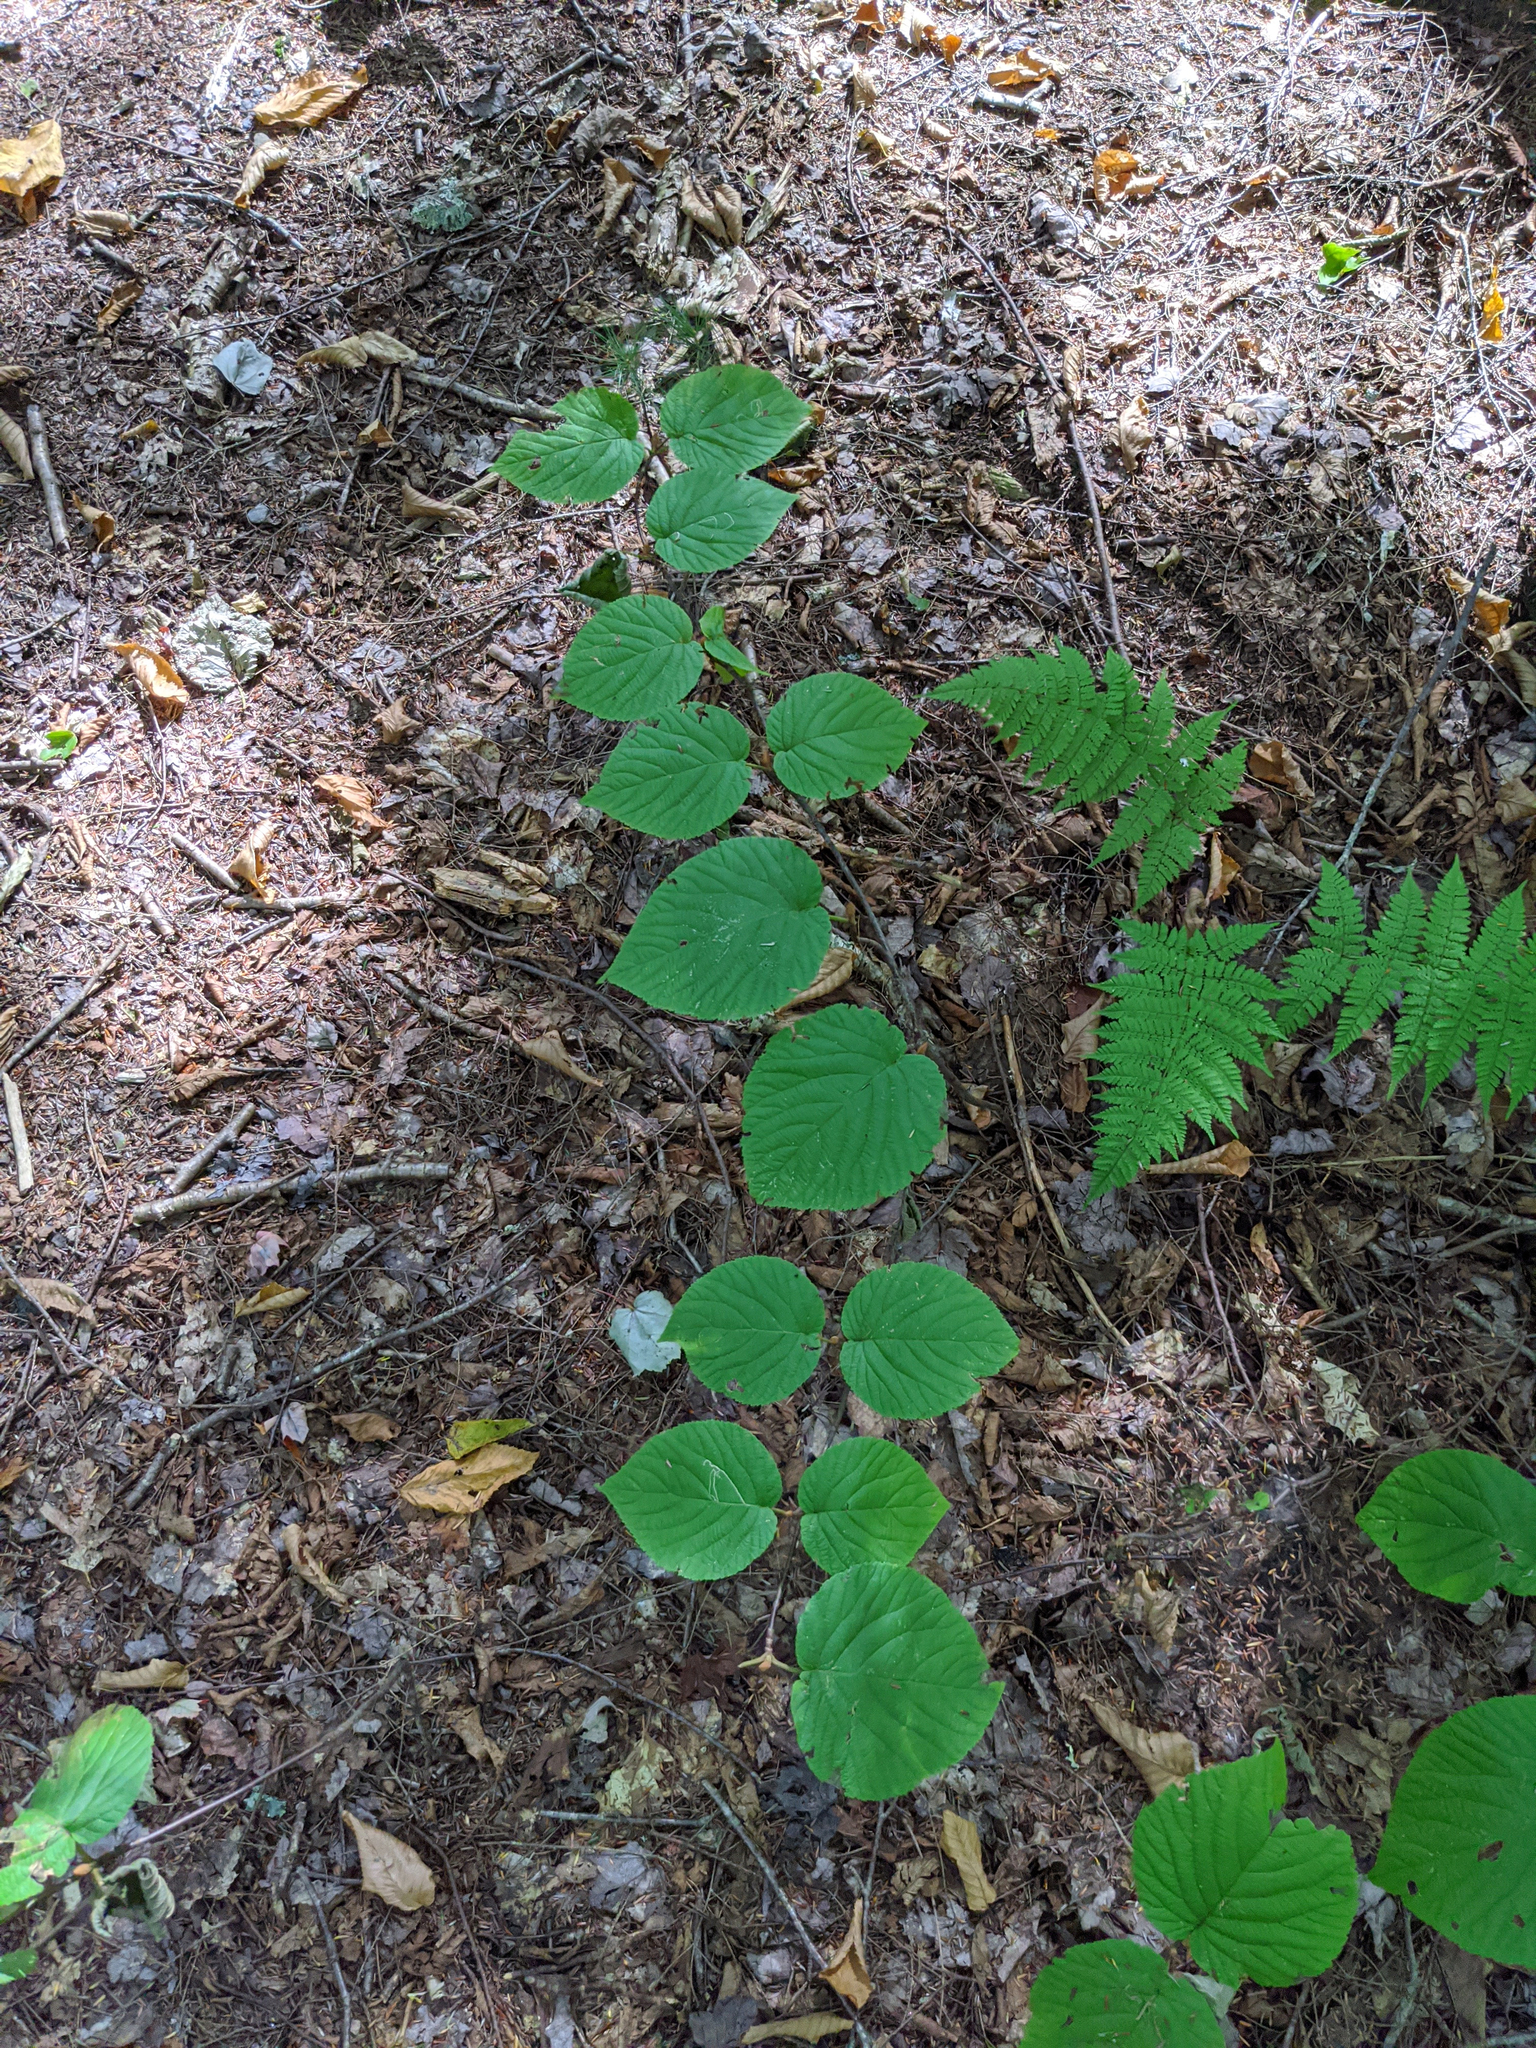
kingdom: Plantae
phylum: Tracheophyta
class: Magnoliopsida
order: Dipsacales
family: Viburnaceae
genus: Viburnum
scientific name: Viburnum lantanoides
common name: Hobblebush
